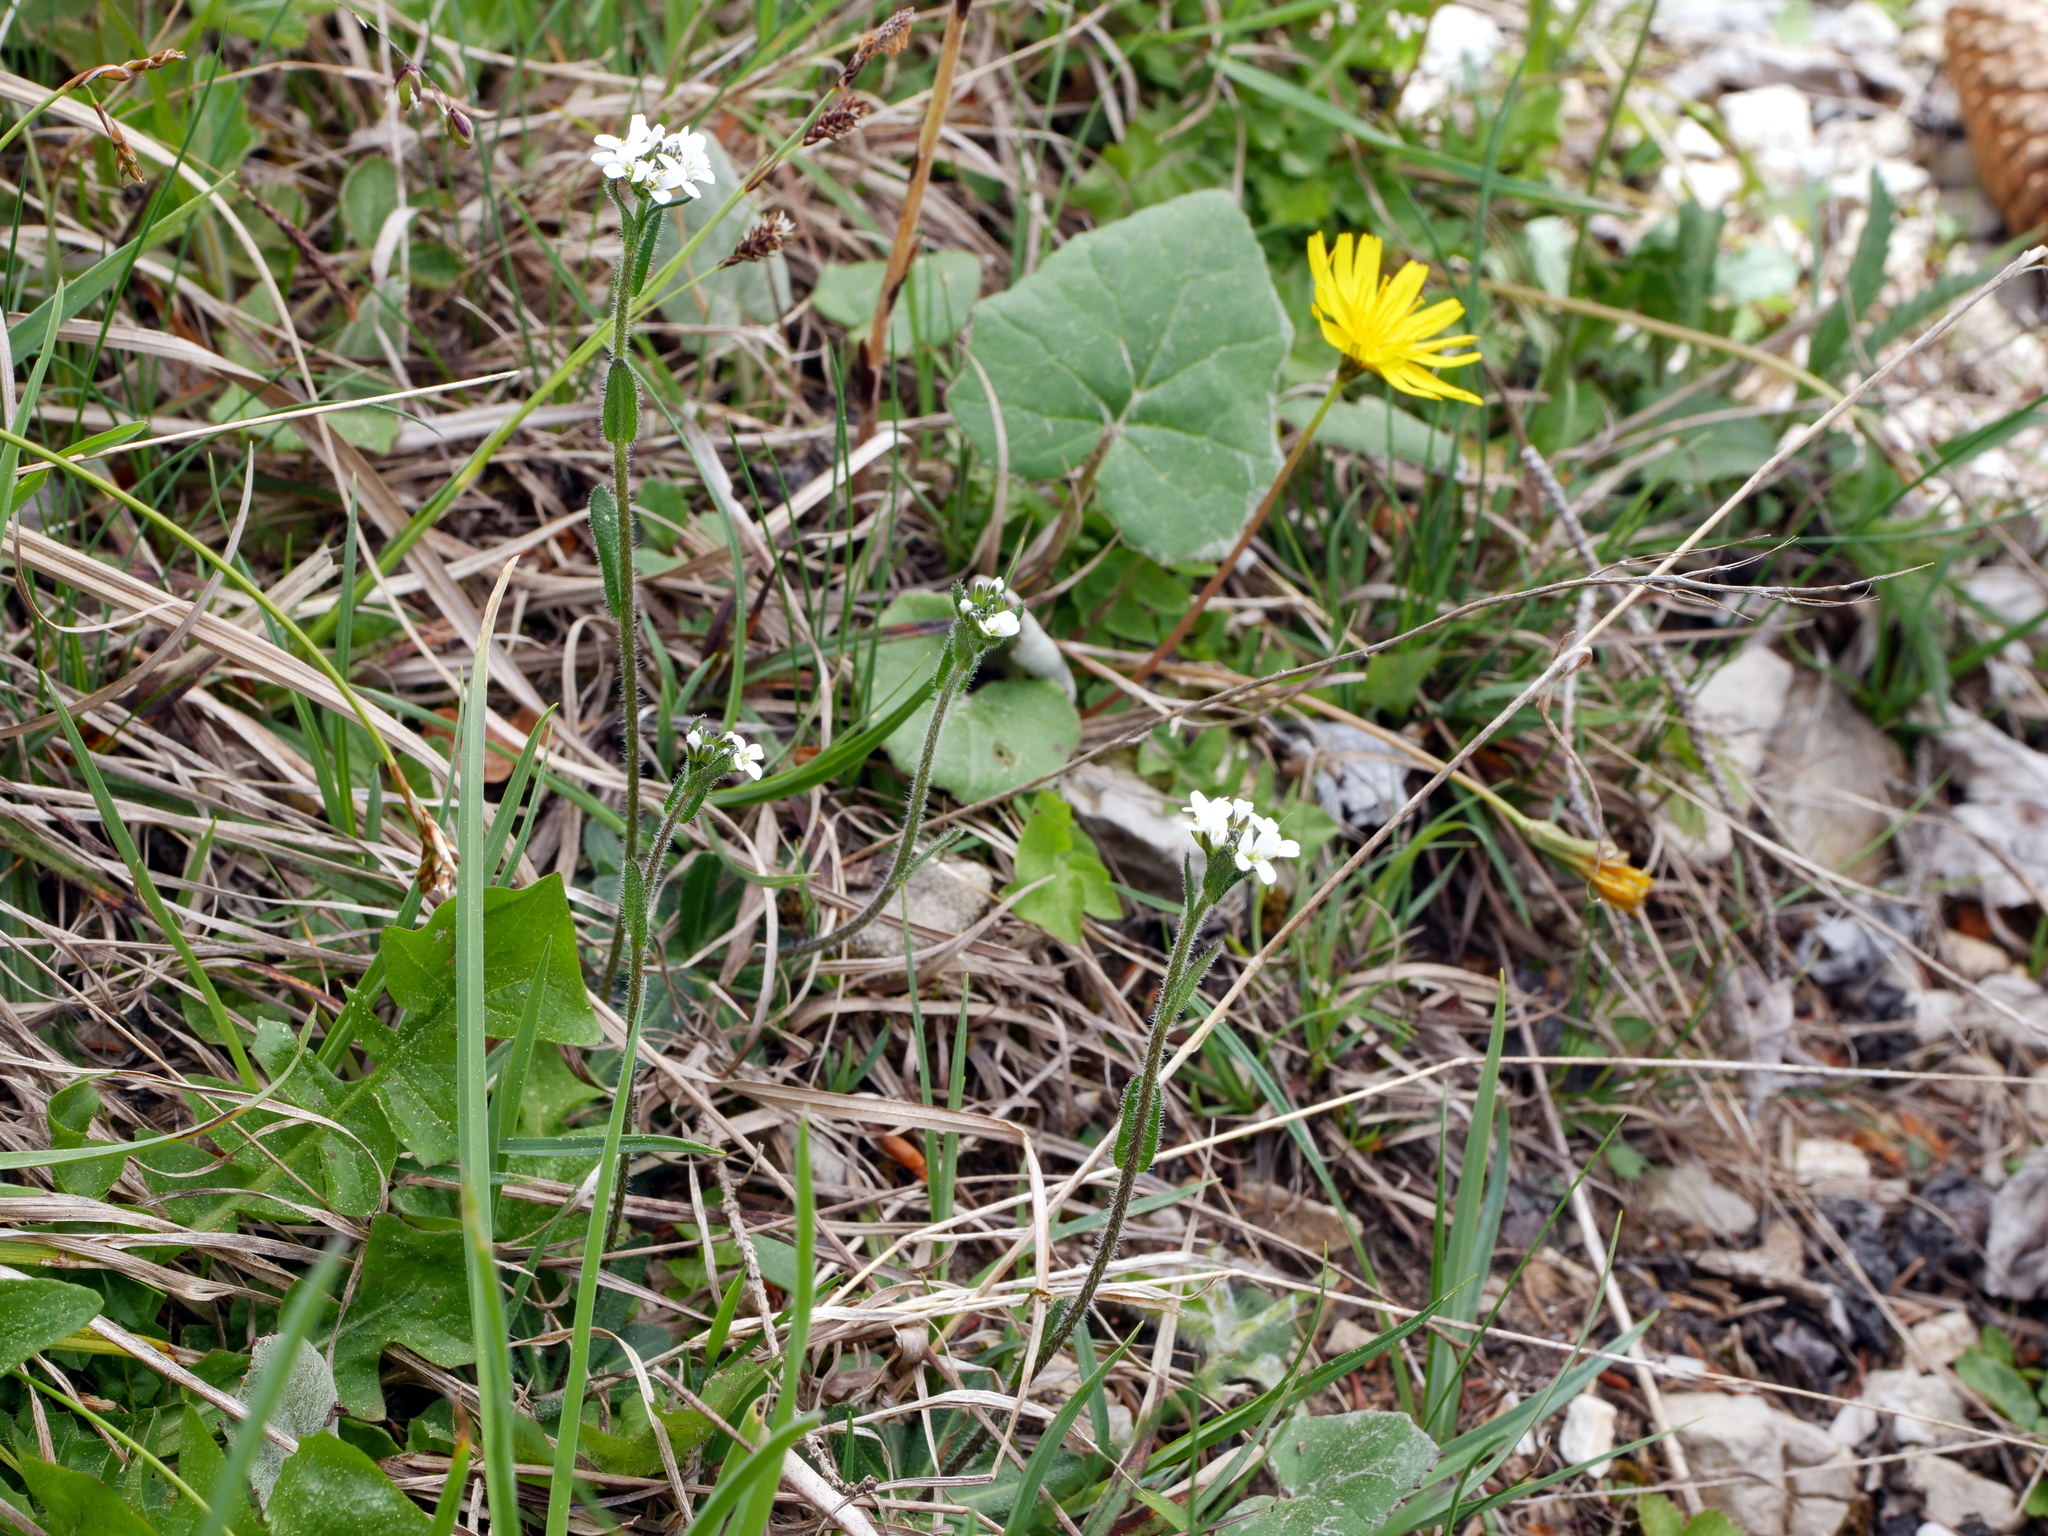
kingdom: Plantae
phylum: Tracheophyta
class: Magnoliopsida
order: Brassicales
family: Brassicaceae
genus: Arabis
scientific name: Arabis ciliata
